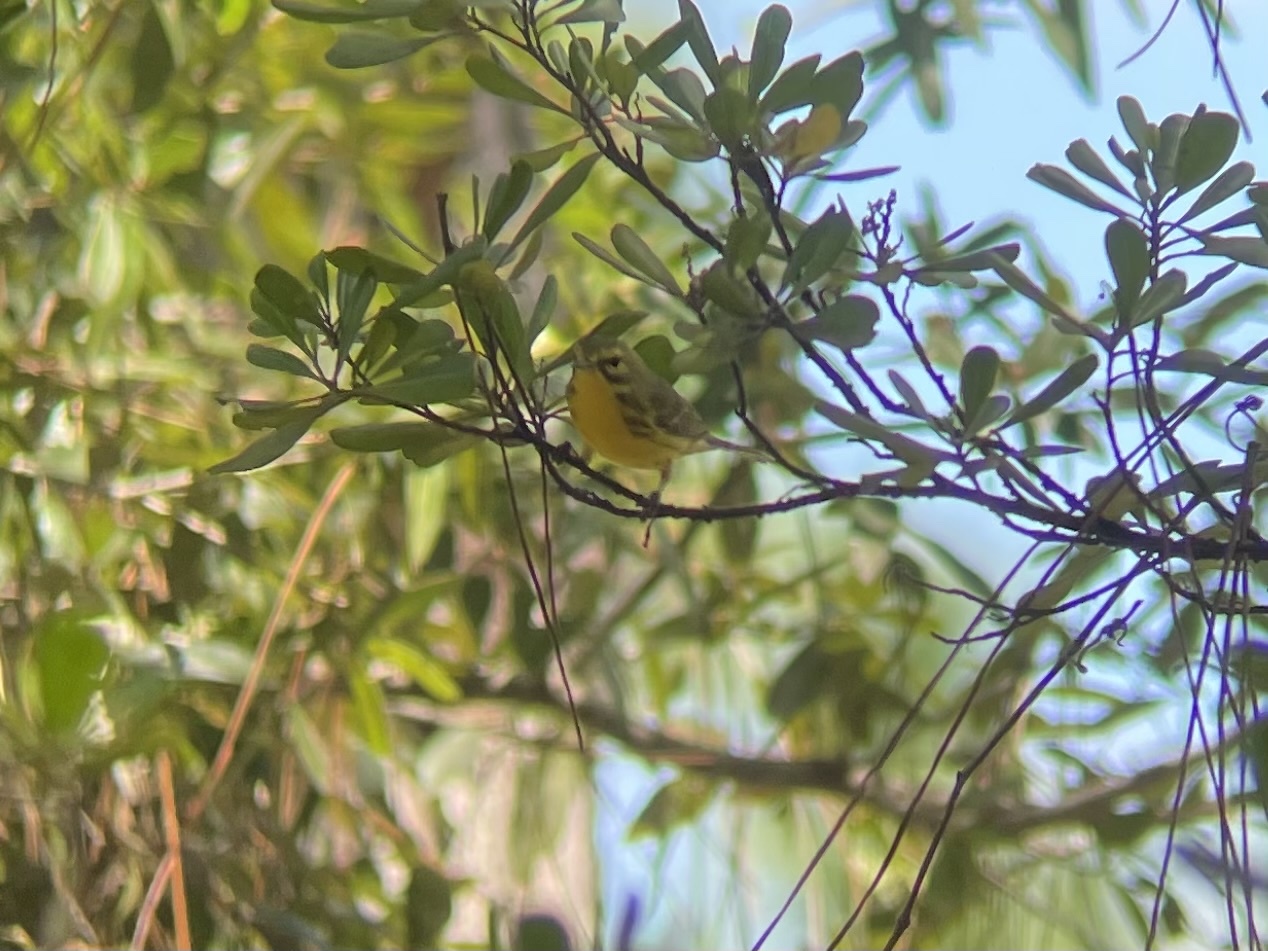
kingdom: Animalia
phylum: Chordata
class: Aves
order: Passeriformes
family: Parulidae
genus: Setophaga
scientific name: Setophaga discolor
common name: Prairie warbler
